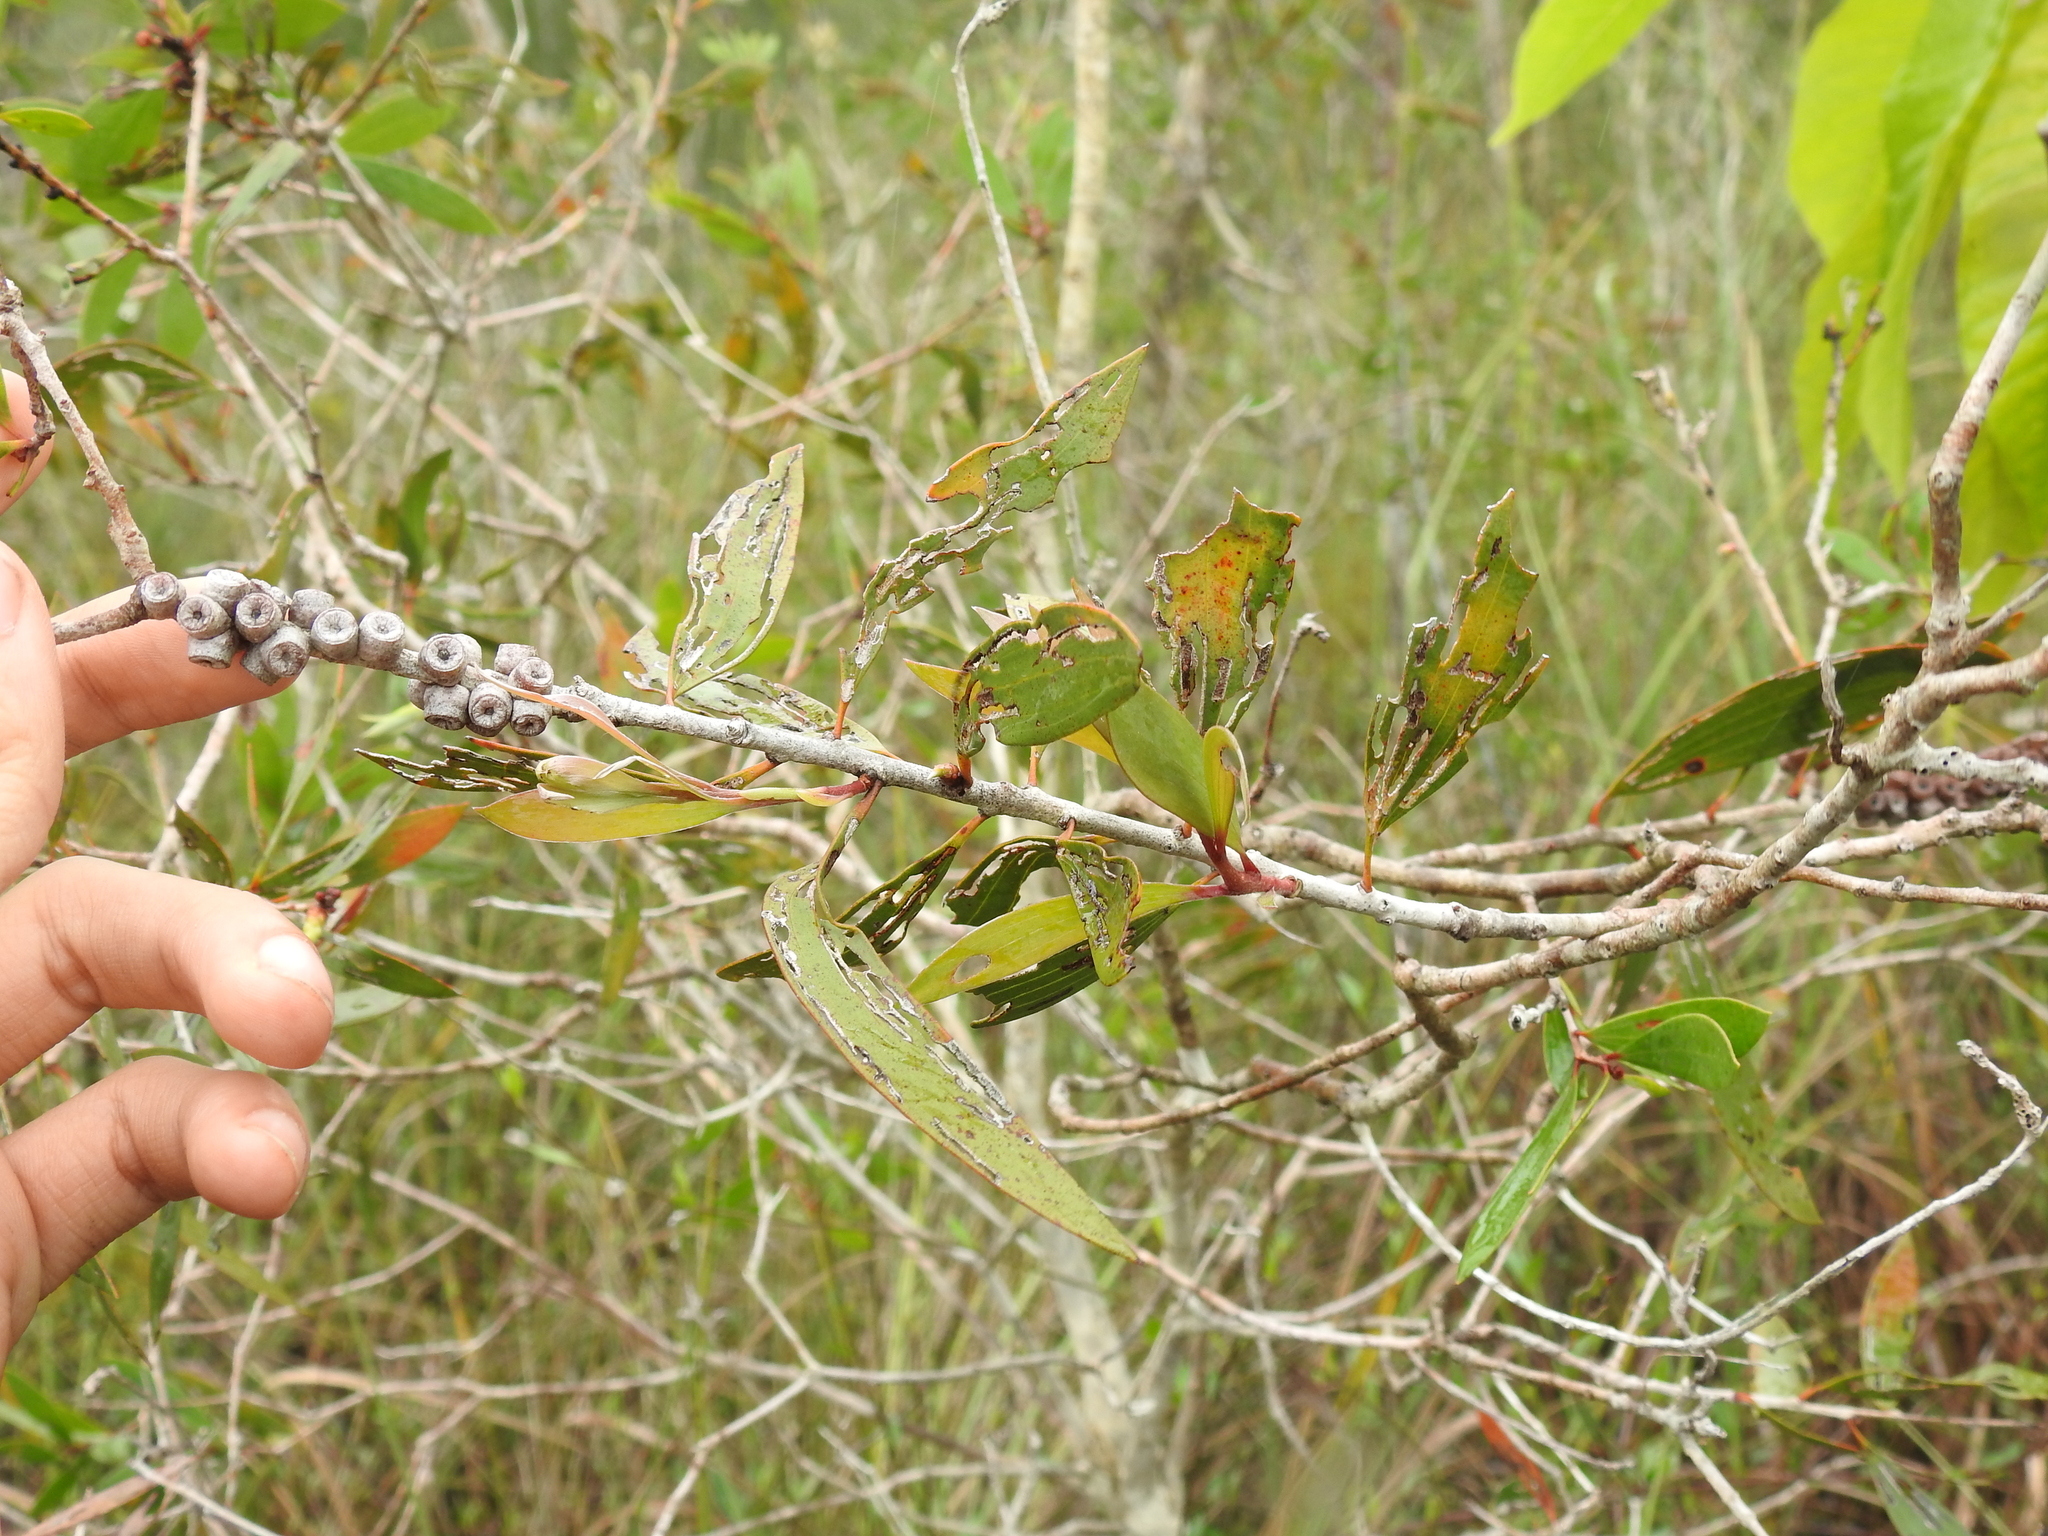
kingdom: Plantae
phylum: Tracheophyta
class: Magnoliopsida
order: Myrtales
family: Myrtaceae
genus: Melaleuca
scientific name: Melaleuca quinquenervia
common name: Punktree
